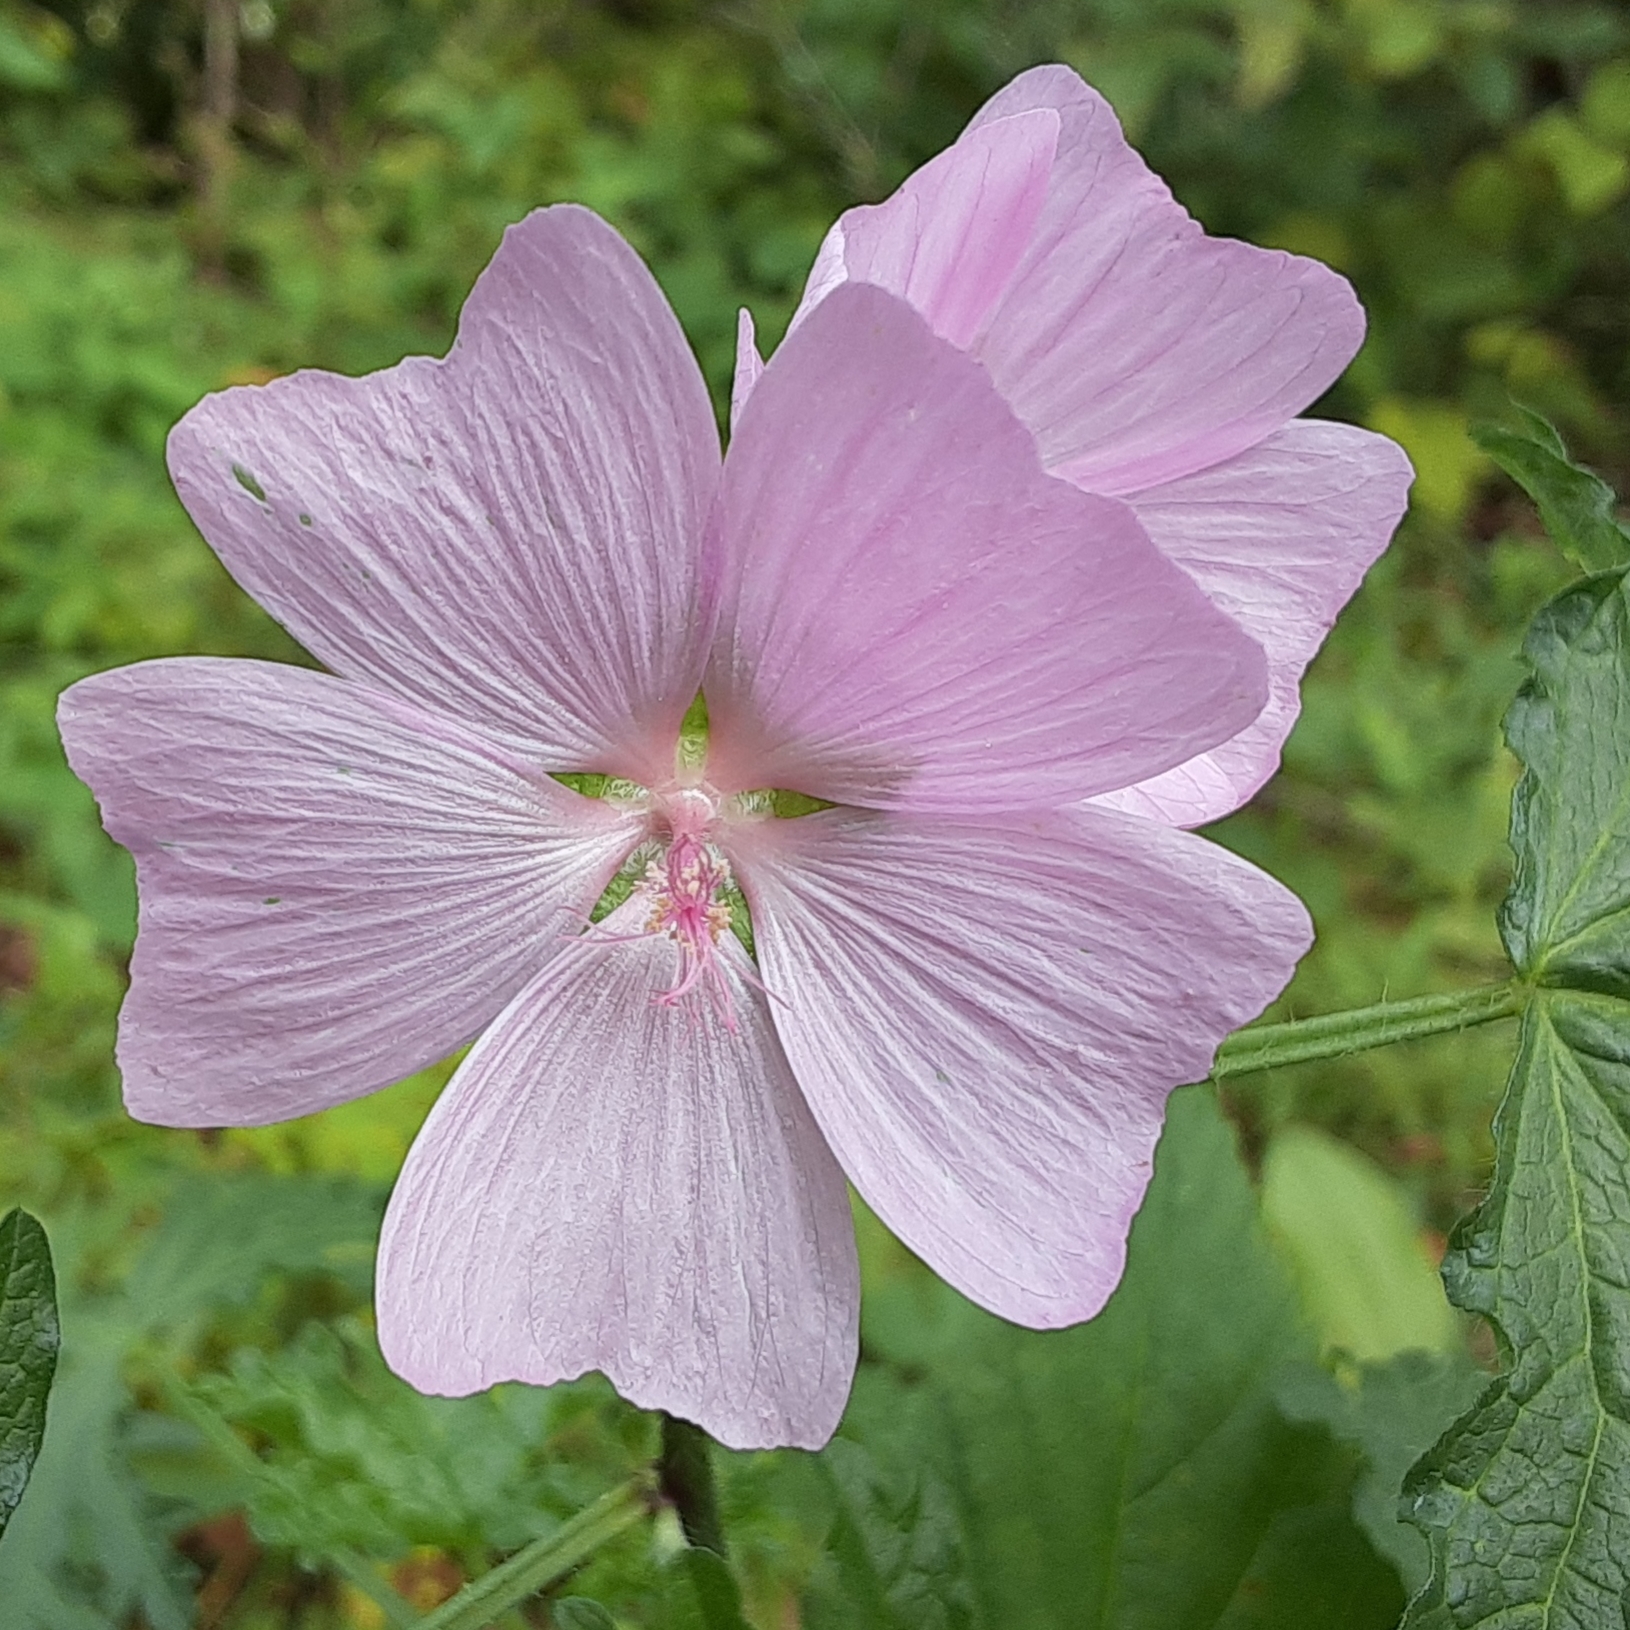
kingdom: Plantae
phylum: Tracheophyta
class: Magnoliopsida
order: Malvales
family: Malvaceae
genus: Malva
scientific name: Malva moschata
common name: Musk mallow
